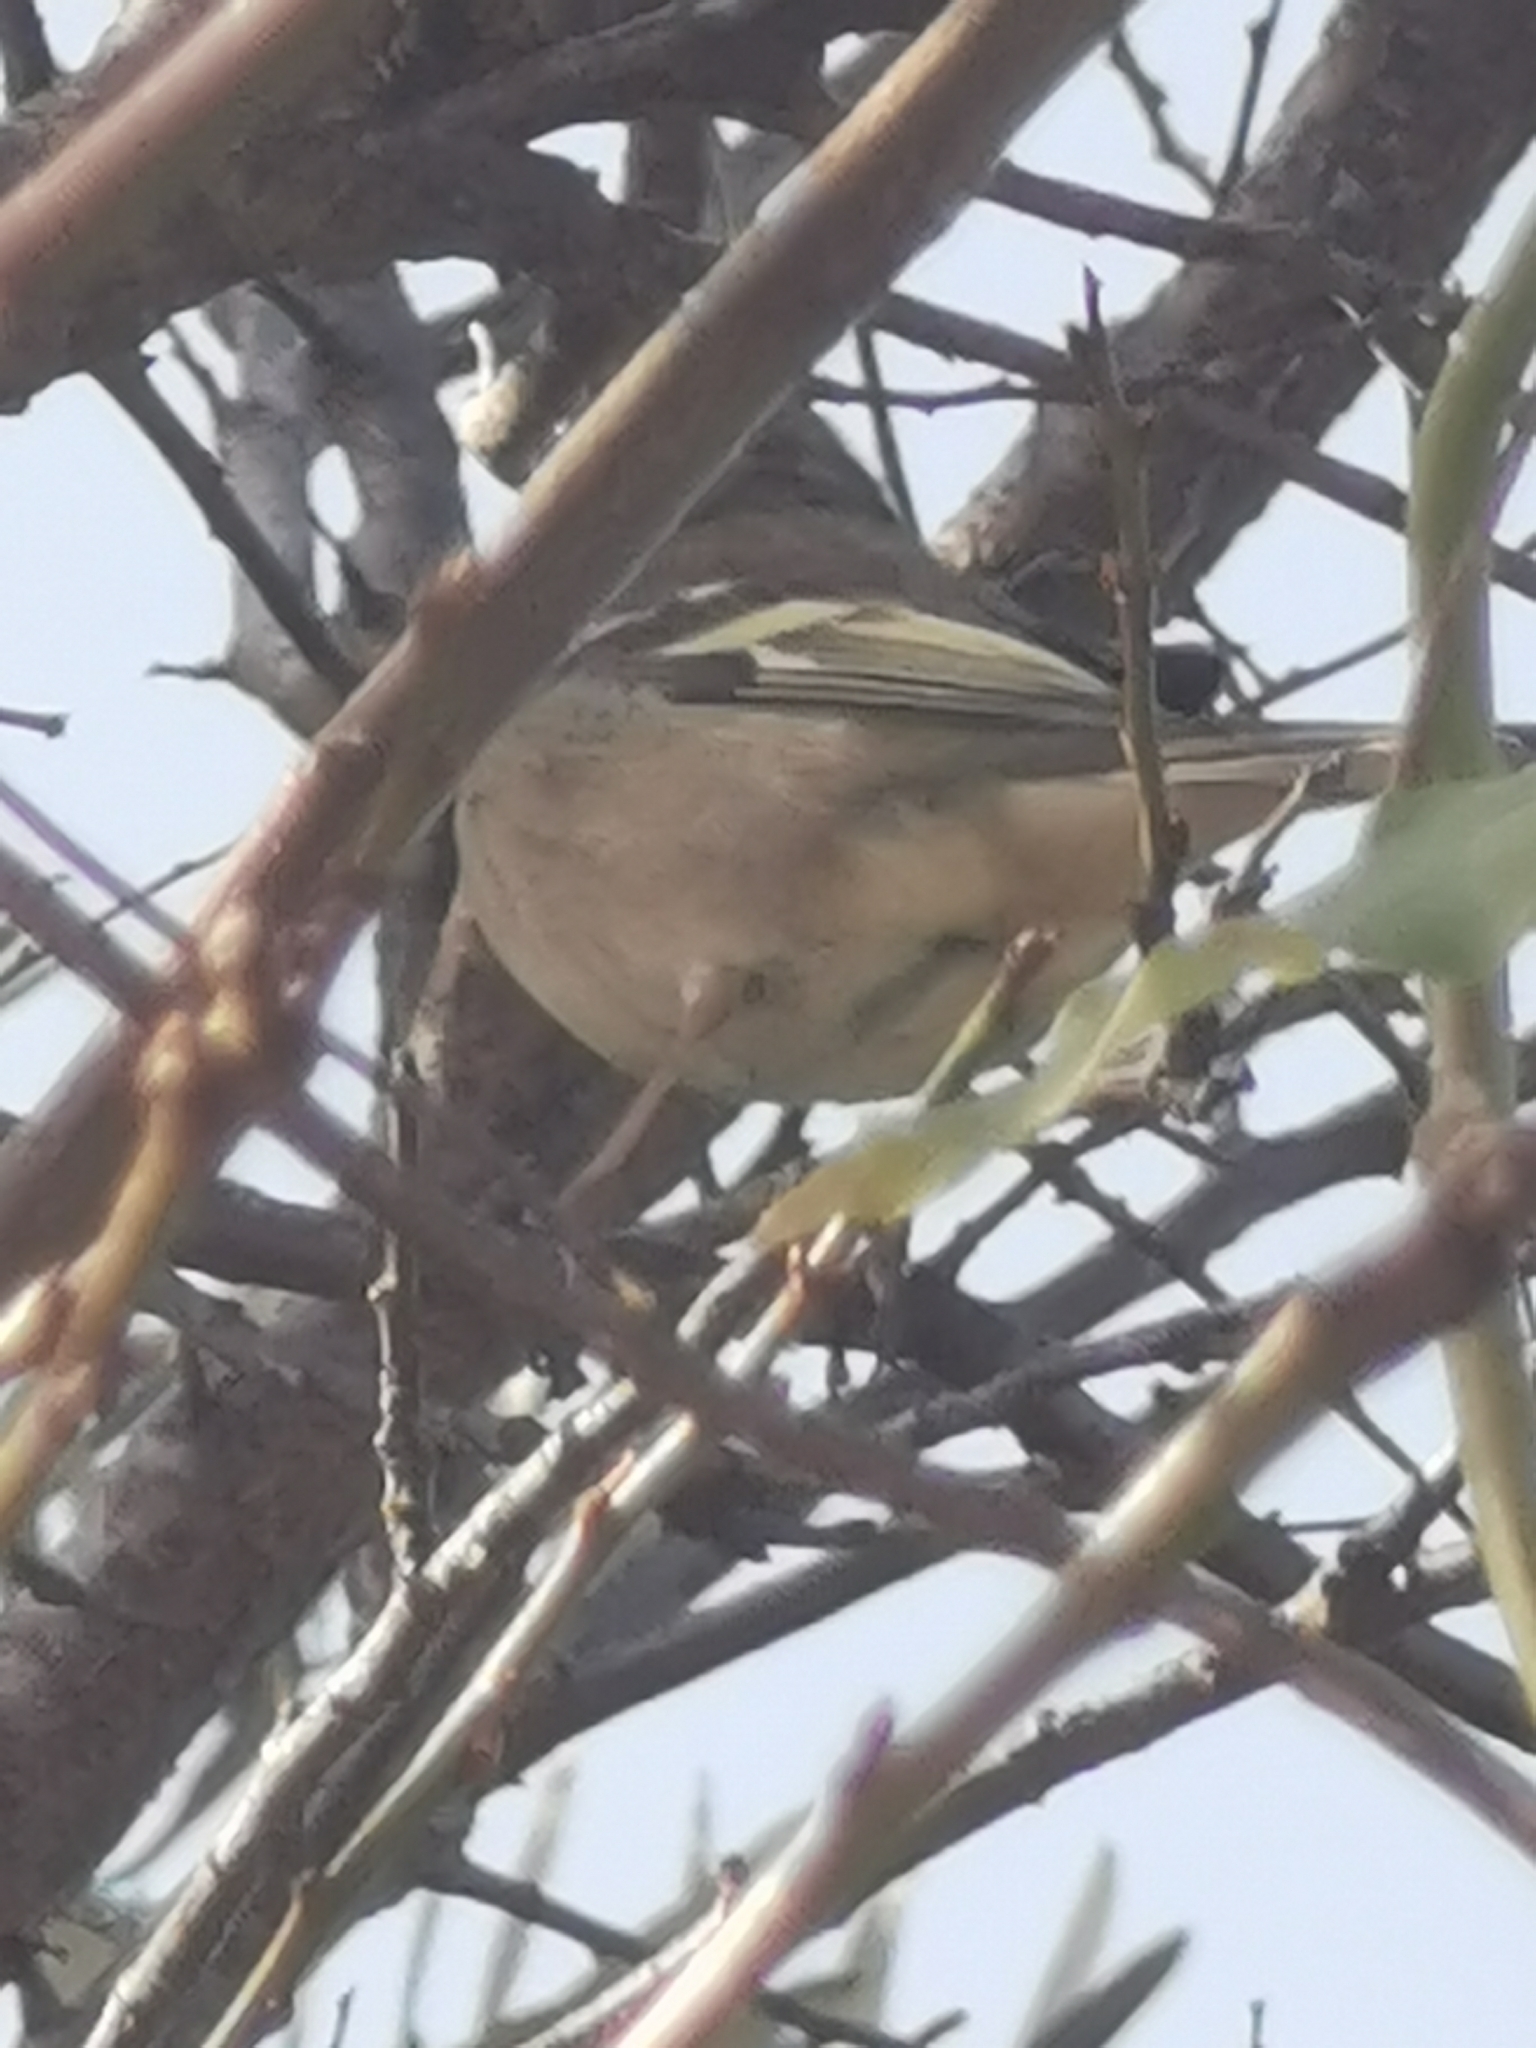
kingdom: Animalia
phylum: Chordata
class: Aves
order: Passeriformes
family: Fringillidae
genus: Fringilla
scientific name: Fringilla coelebs
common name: Common chaffinch
